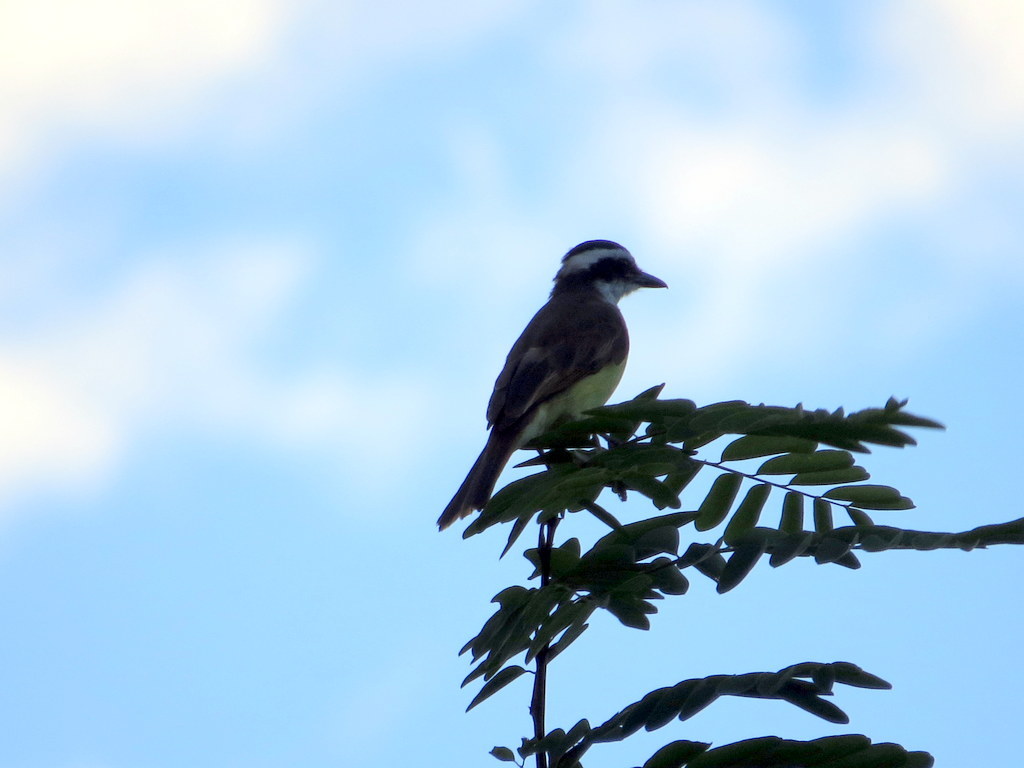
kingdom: Animalia
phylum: Chordata
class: Aves
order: Passeriformes
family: Tyrannidae
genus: Pitangus
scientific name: Pitangus sulphuratus
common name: Great kiskadee
